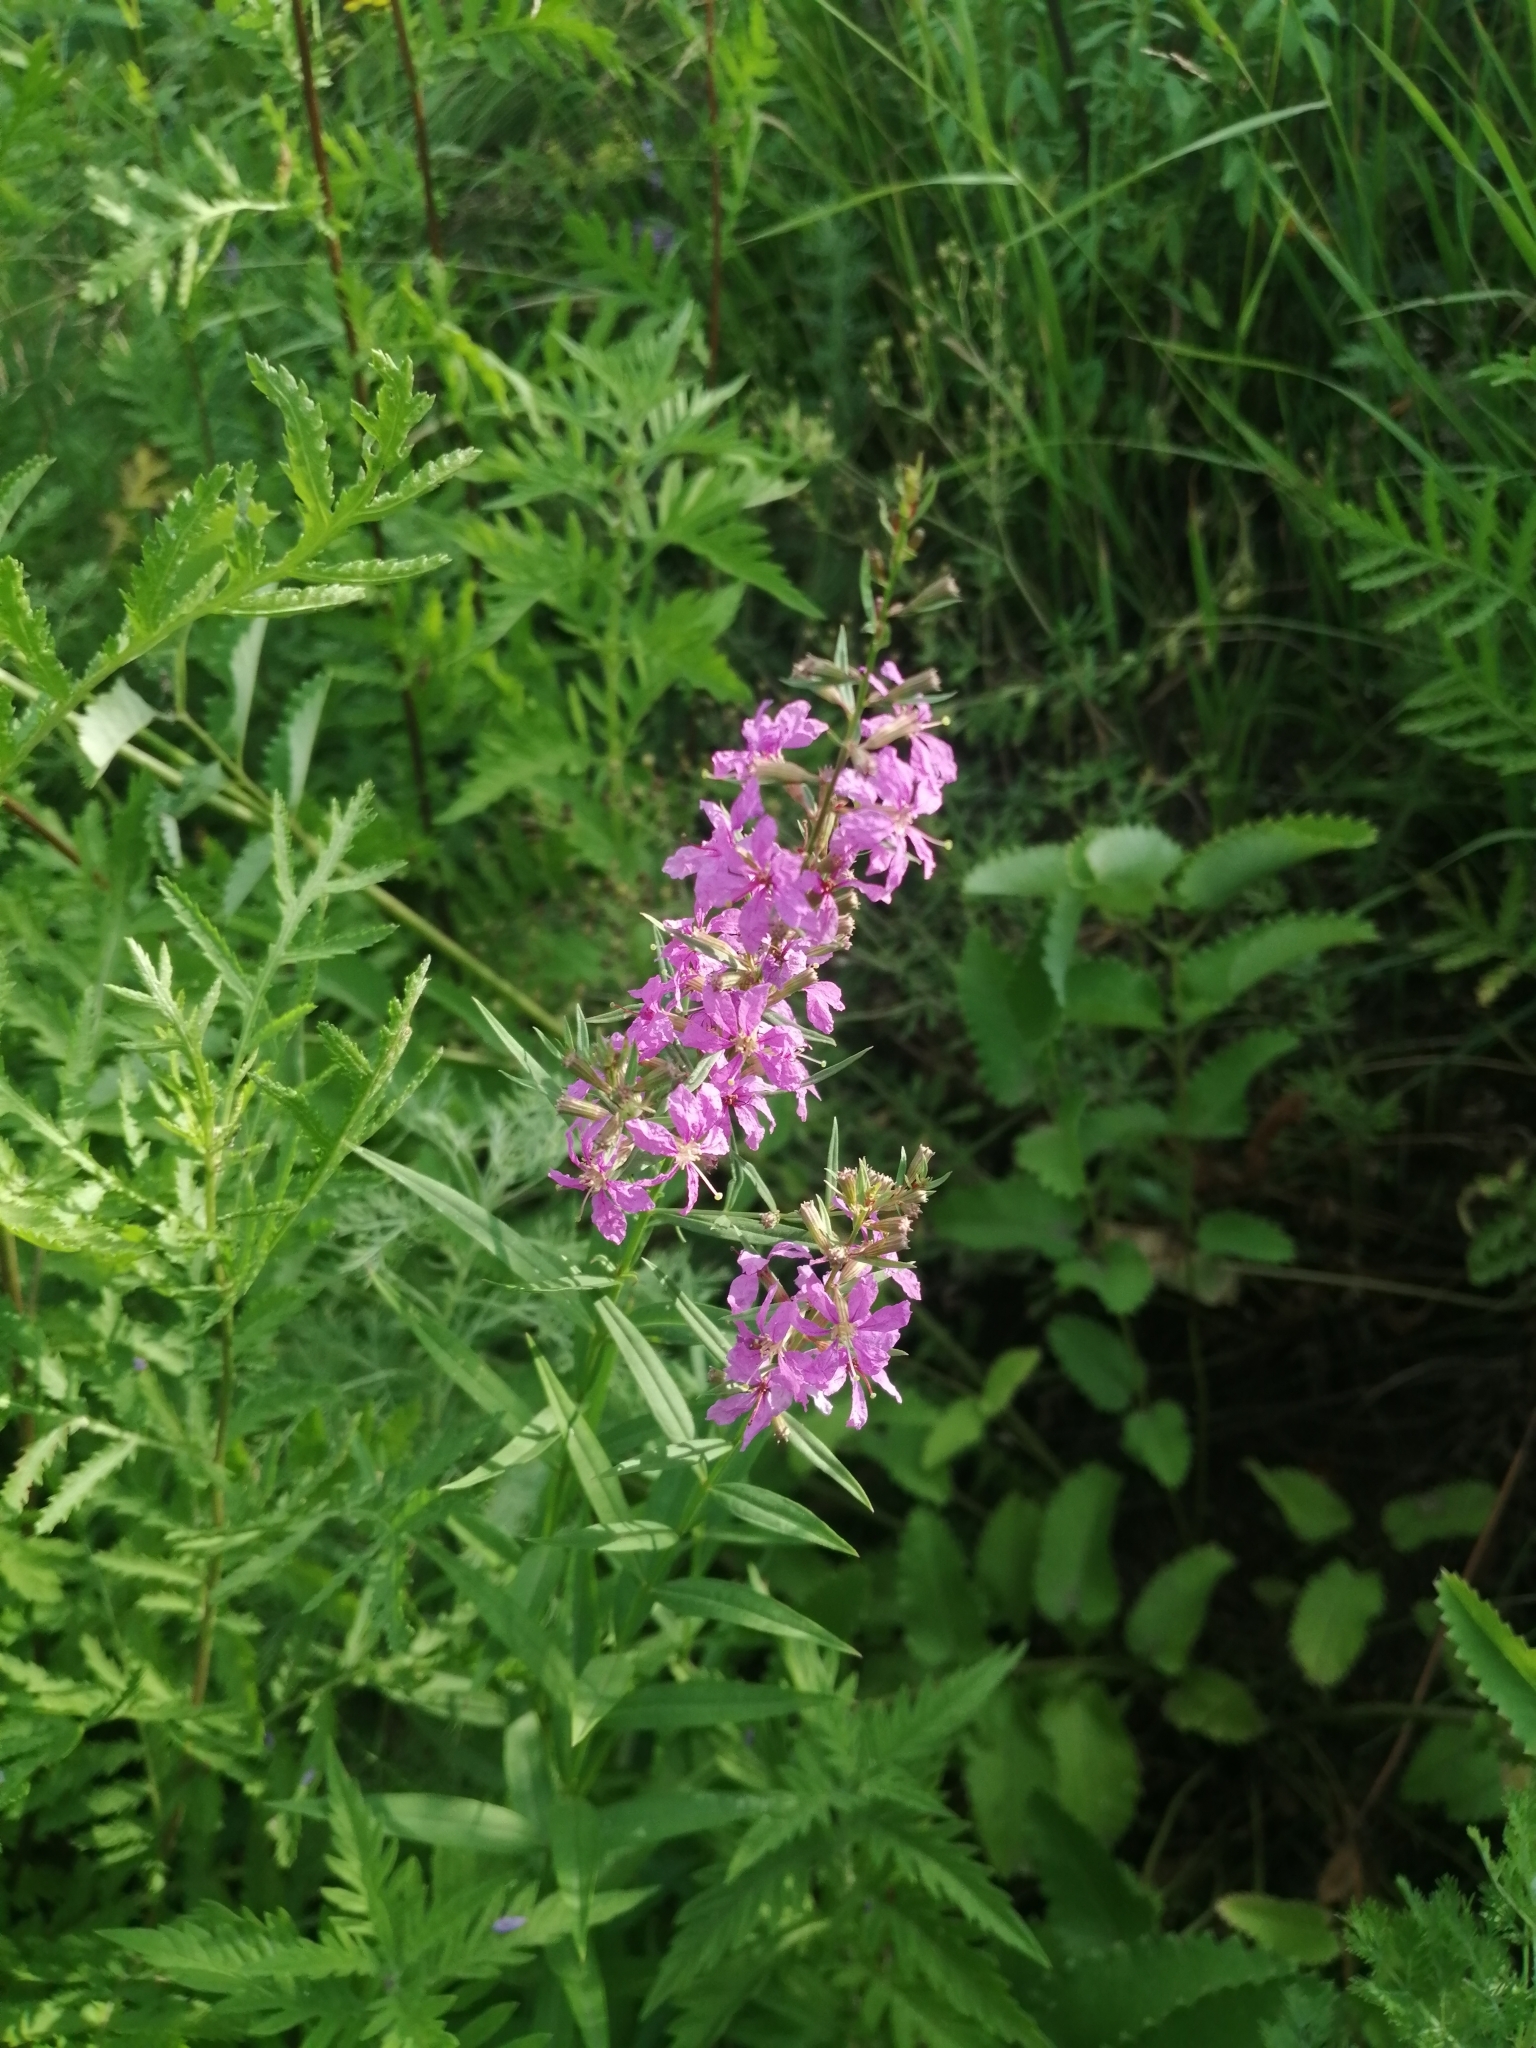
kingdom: Plantae
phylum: Tracheophyta
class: Magnoliopsida
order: Myrtales
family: Lythraceae
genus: Lythrum
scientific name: Lythrum virgatum
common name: European wand loosestrife
